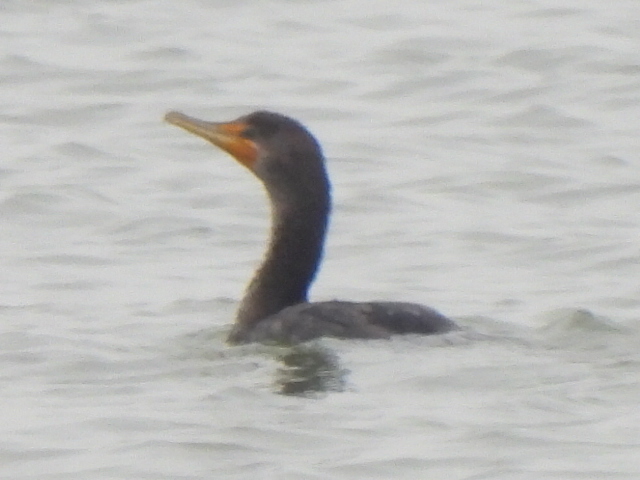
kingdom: Animalia
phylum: Chordata
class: Aves
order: Suliformes
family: Phalacrocoracidae
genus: Phalacrocorax
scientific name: Phalacrocorax auritus
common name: Double-crested cormorant
